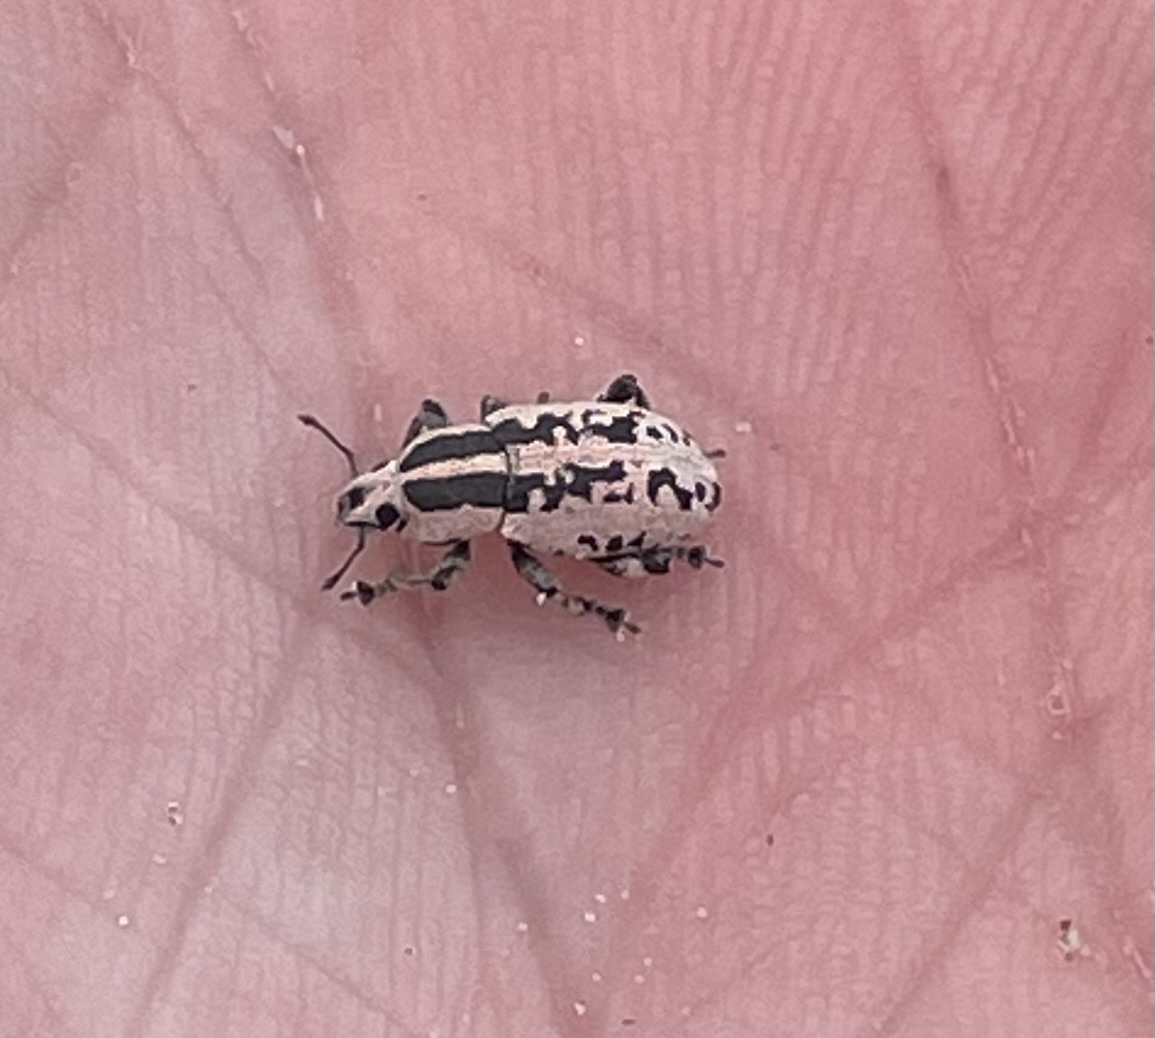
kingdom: Animalia
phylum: Arthropoda
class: Insecta
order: Coleoptera
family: Curculionidae
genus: Eudiagogus
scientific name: Eudiagogus rosenschoeldi
